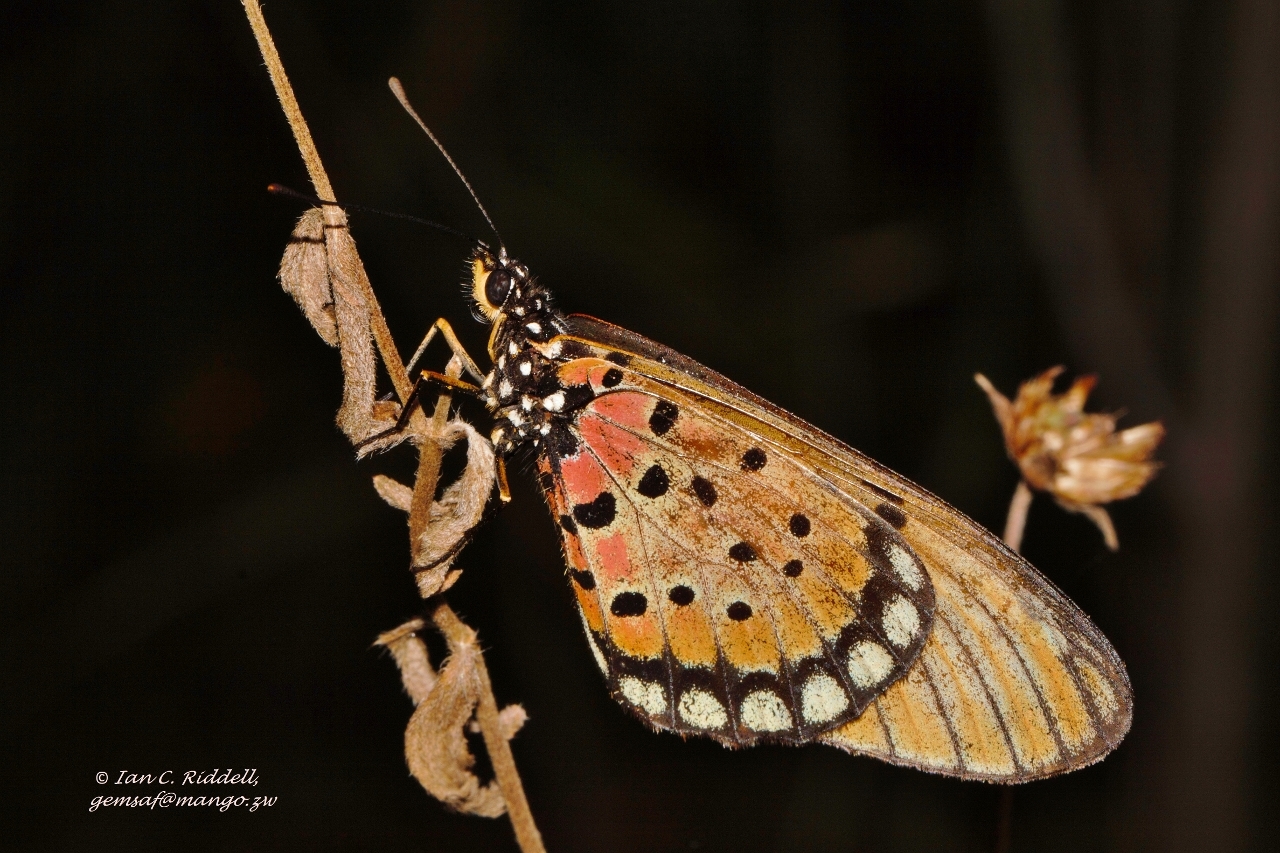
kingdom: Animalia
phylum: Arthropoda
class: Insecta
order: Lepidoptera
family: Nymphalidae
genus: Stephenia
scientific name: Stephenia
